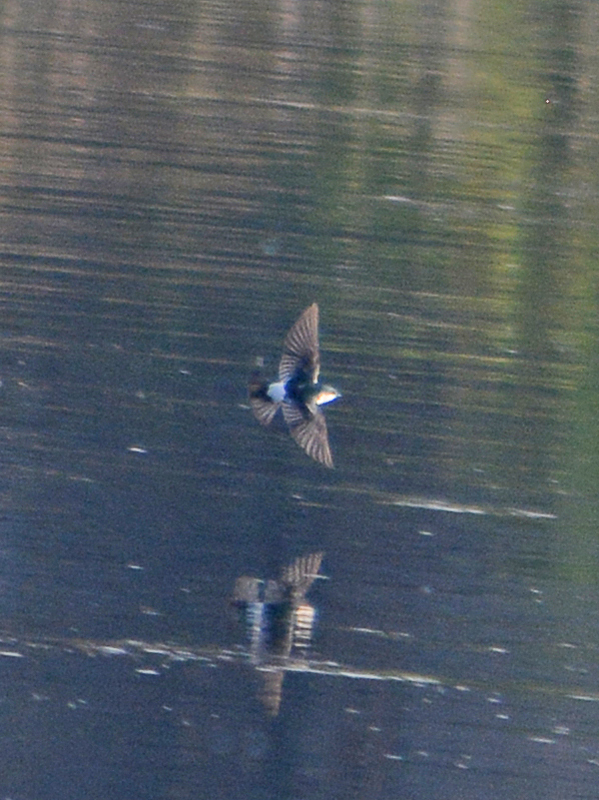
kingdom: Animalia
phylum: Chordata
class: Aves
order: Passeriformes
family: Hirundinidae
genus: Tachycineta
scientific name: Tachycineta albilinea
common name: Mangrove swallow
